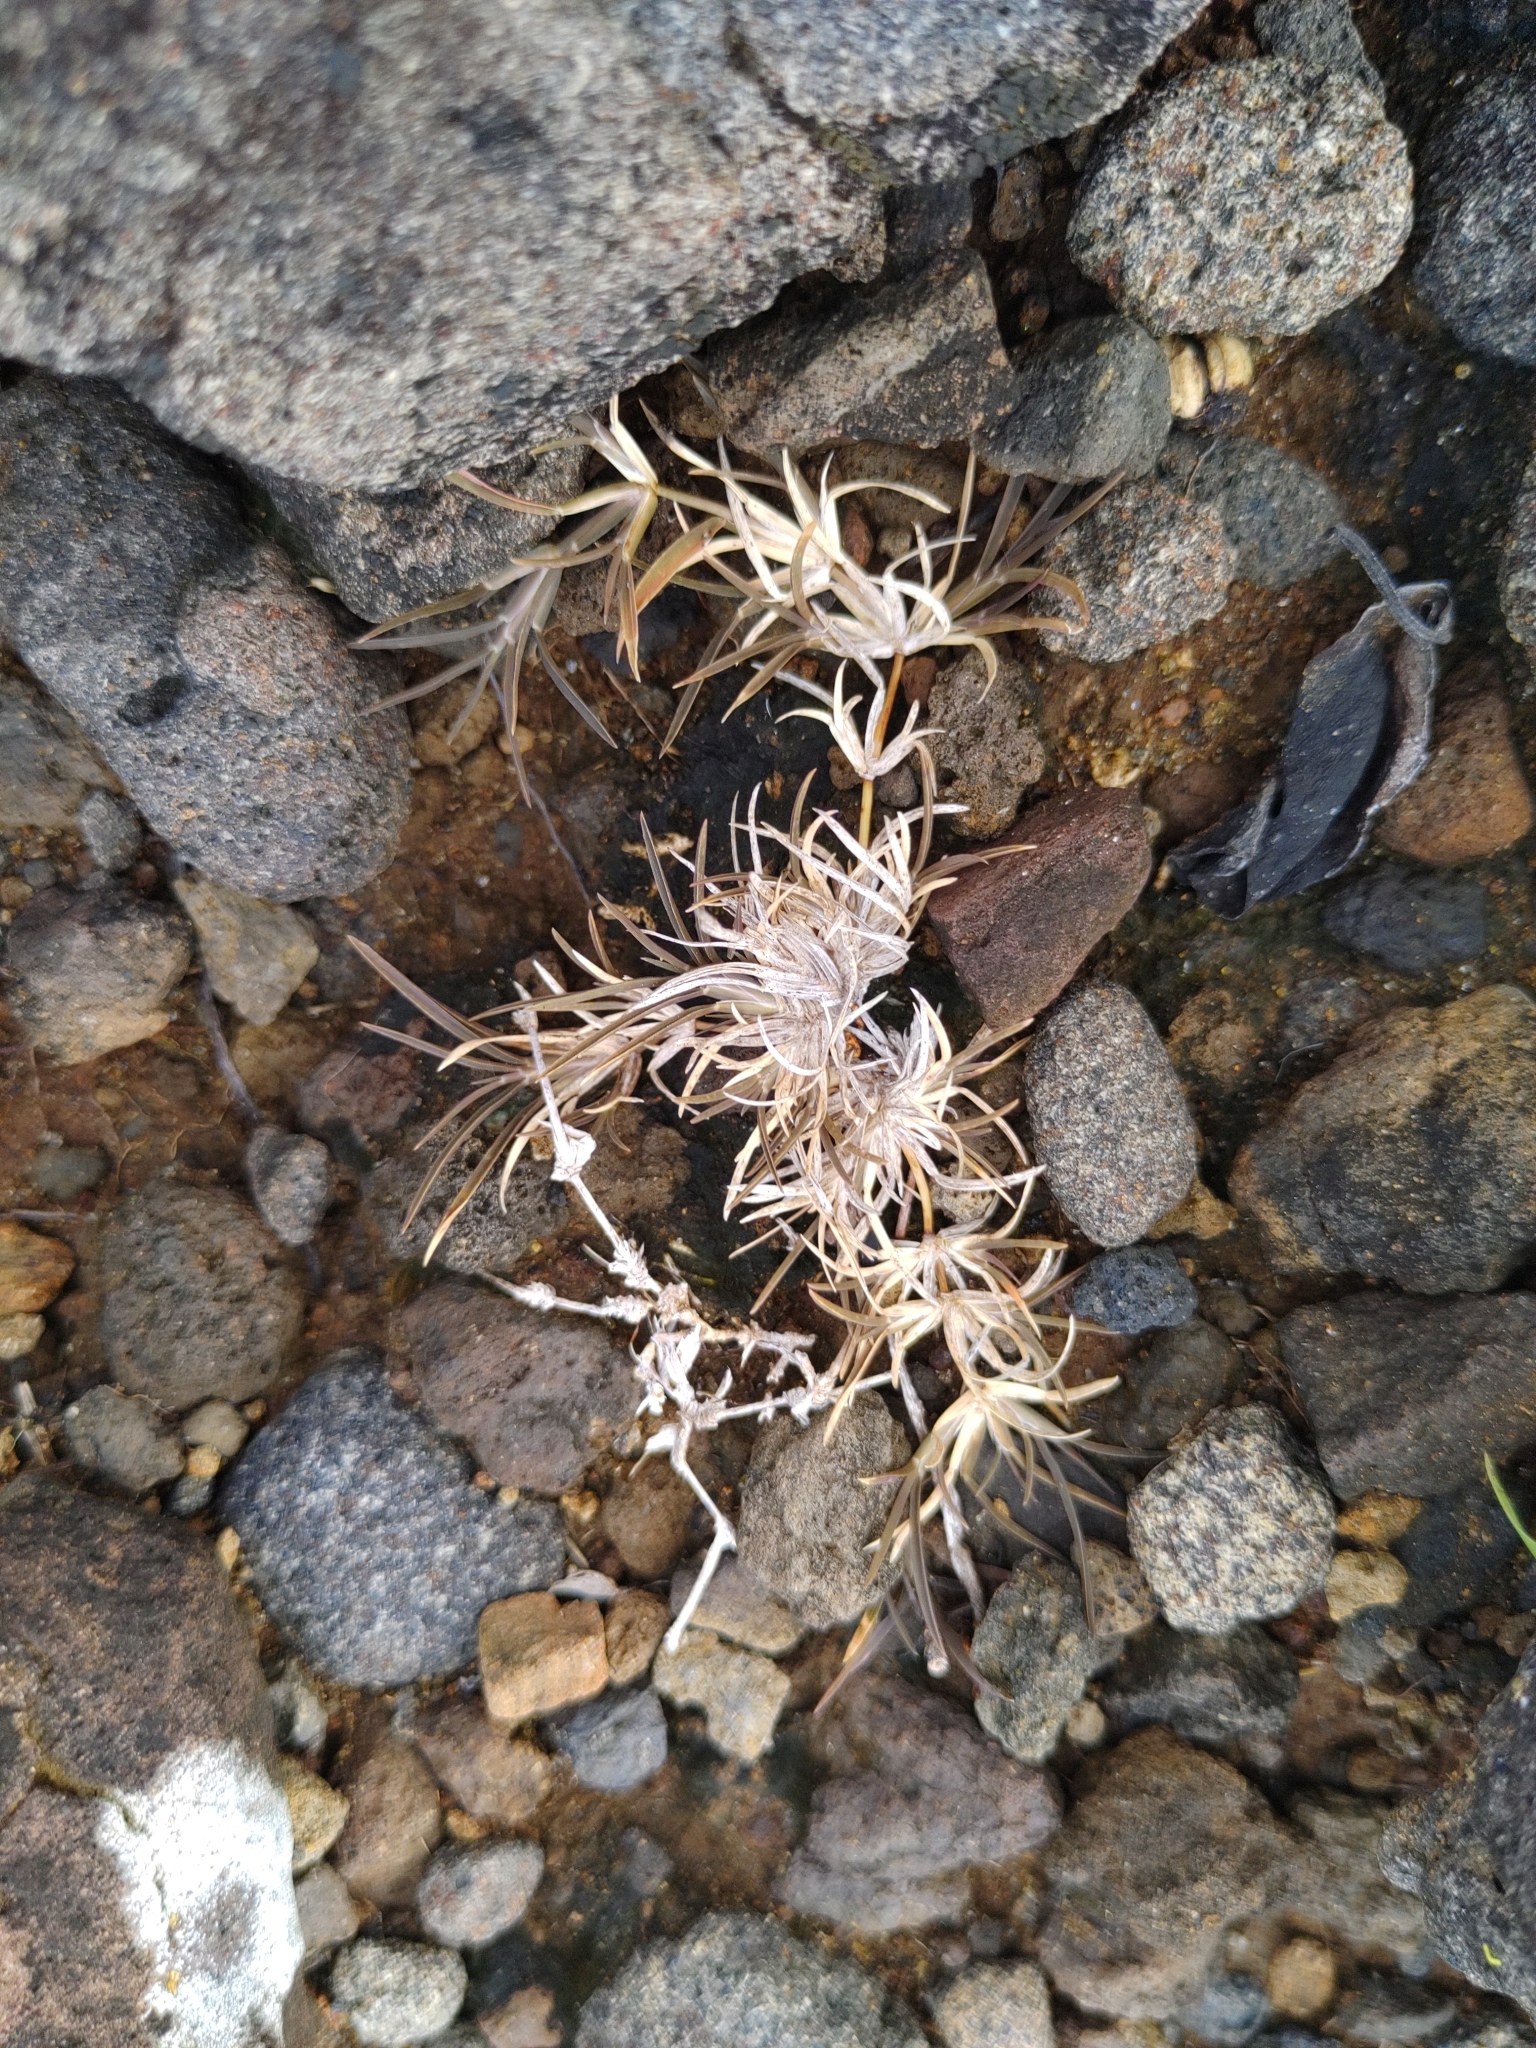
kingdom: Plantae
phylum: Tracheophyta
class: Liliopsida
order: Poales
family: Poaceae
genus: Chloris
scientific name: Chloris filiformis
